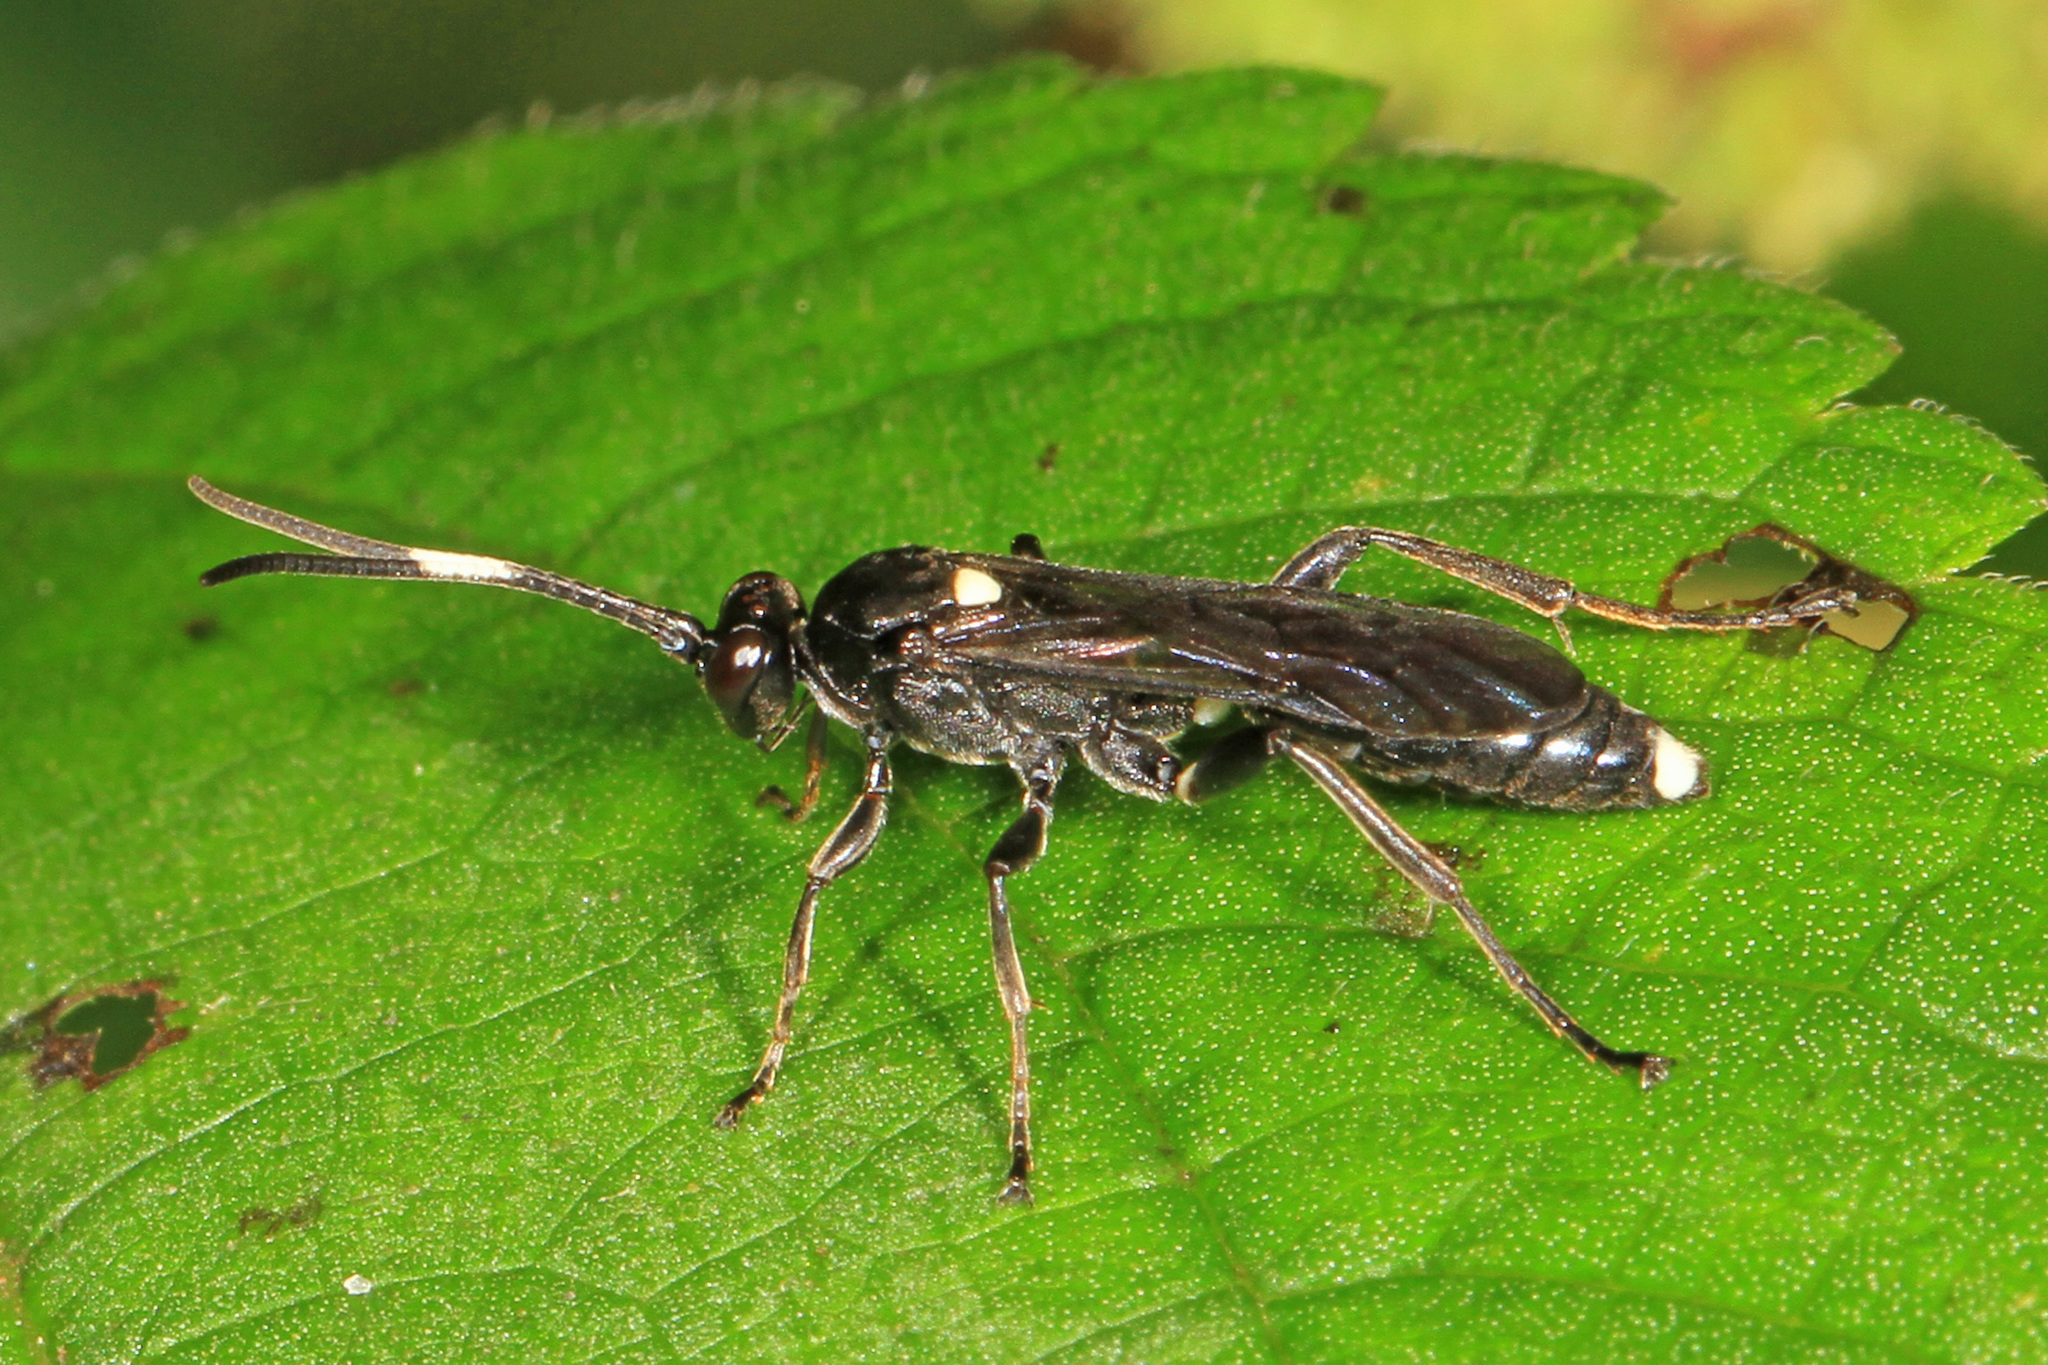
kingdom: Animalia
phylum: Arthropoda
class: Insecta
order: Hymenoptera
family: Ichneumonidae
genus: Vulgichneumon
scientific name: Vulgichneumon brevicinctor
